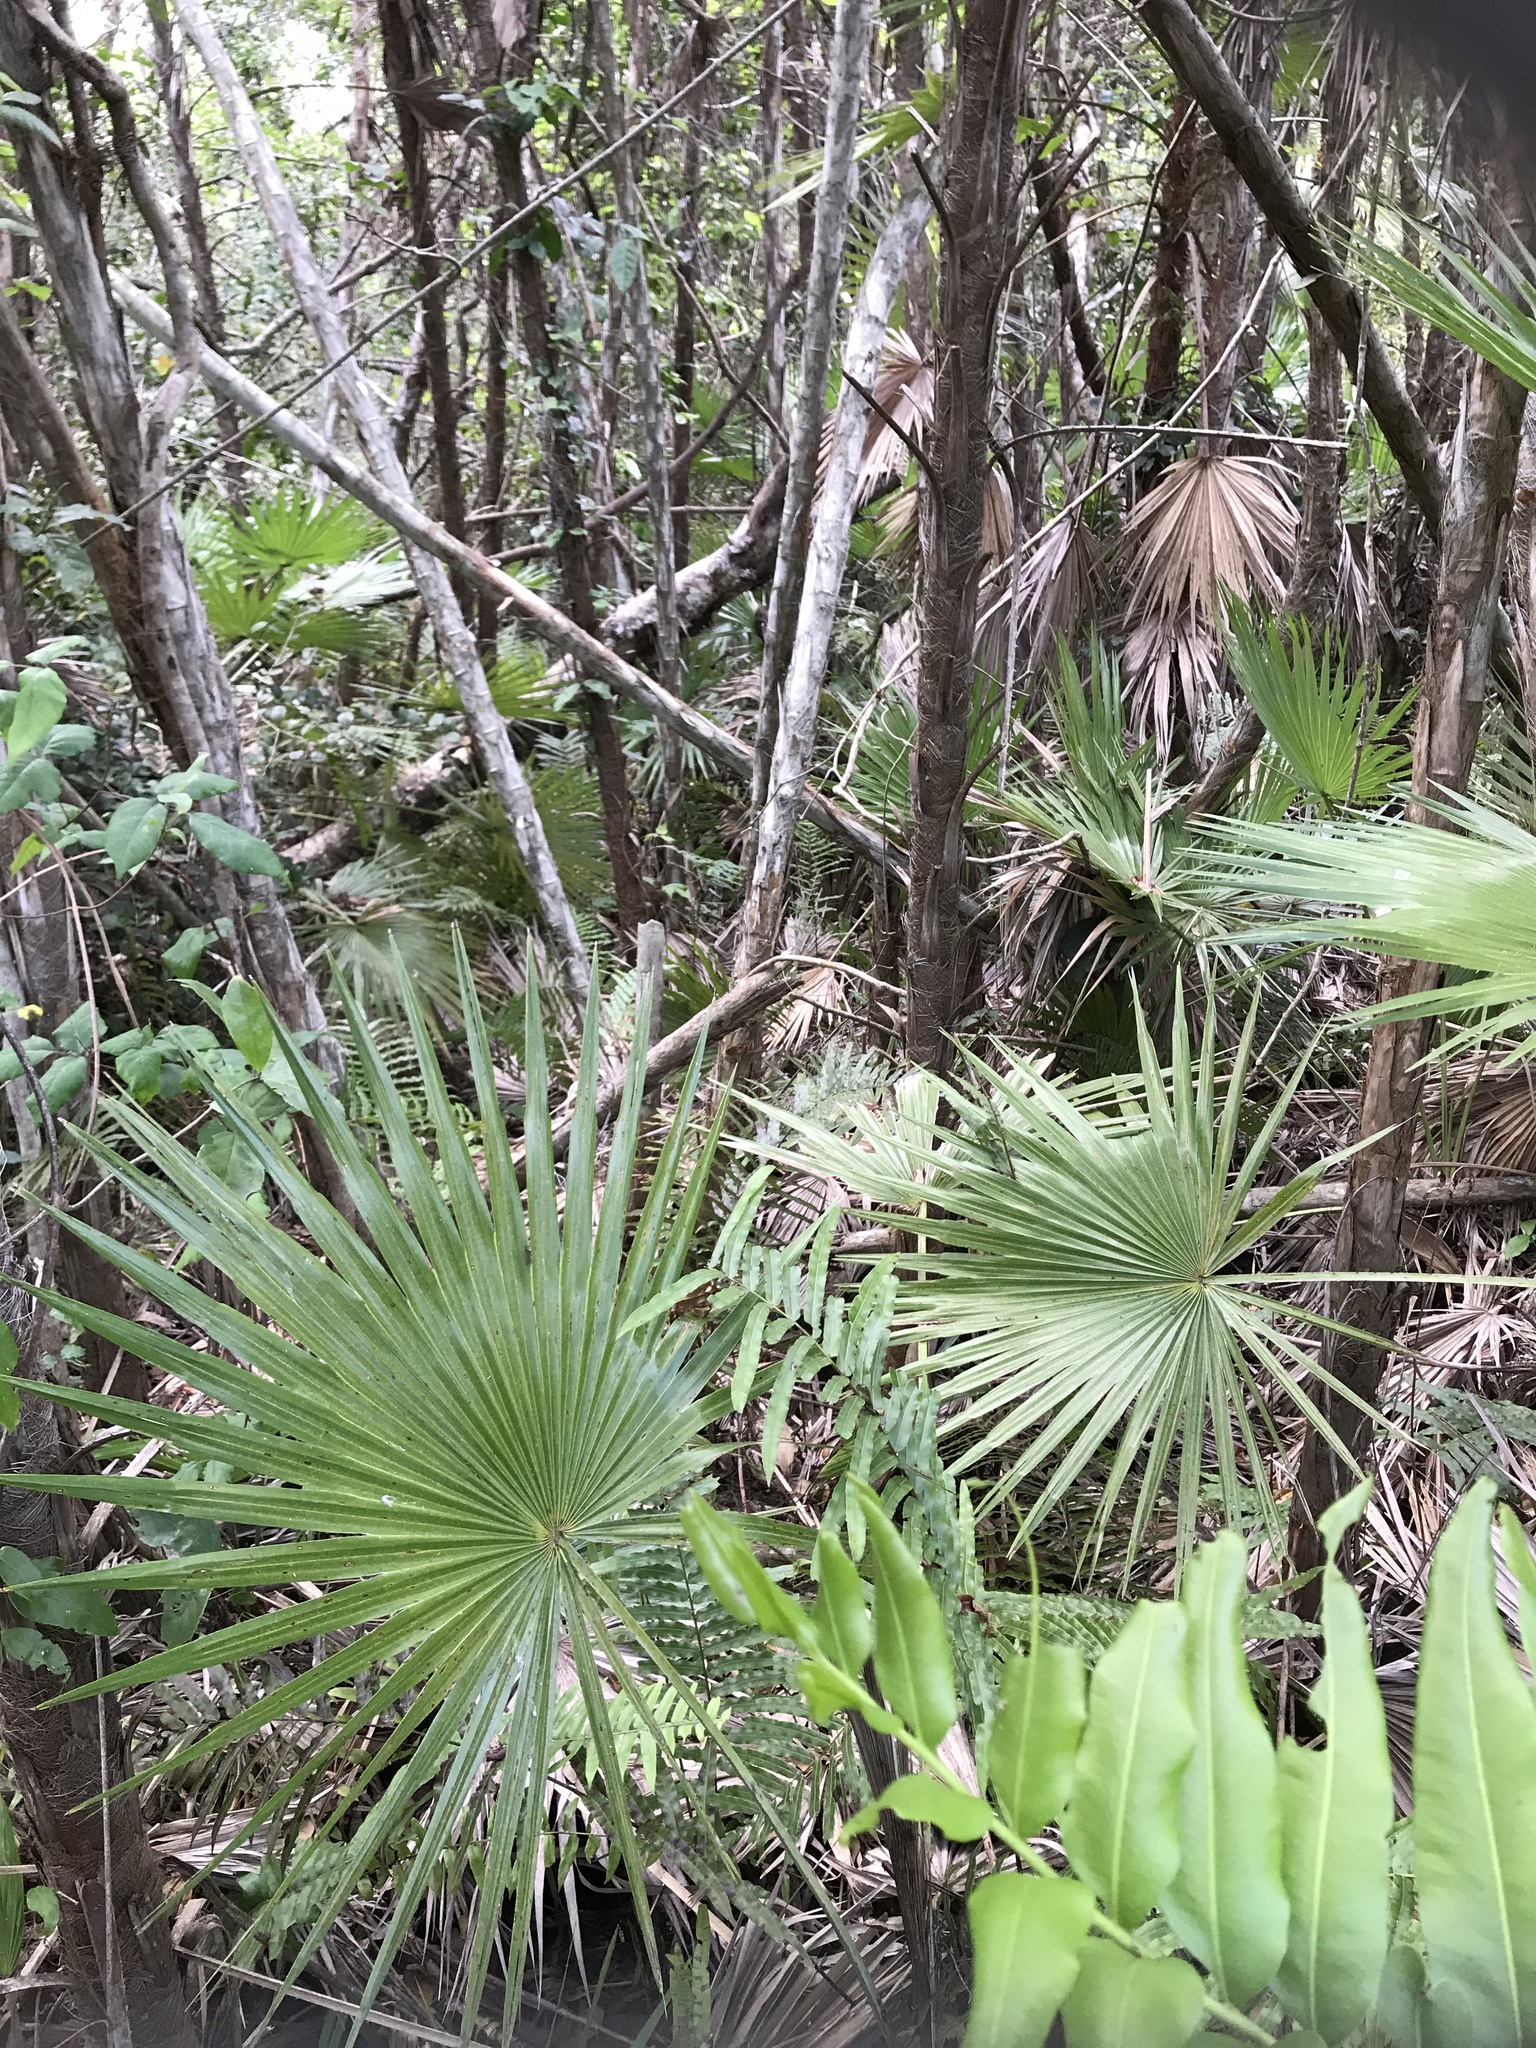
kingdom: Plantae
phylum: Tracheophyta
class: Liliopsida
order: Arecales
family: Arecaceae
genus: Acoelorraphe
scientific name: Acoelorraphe wrightii
